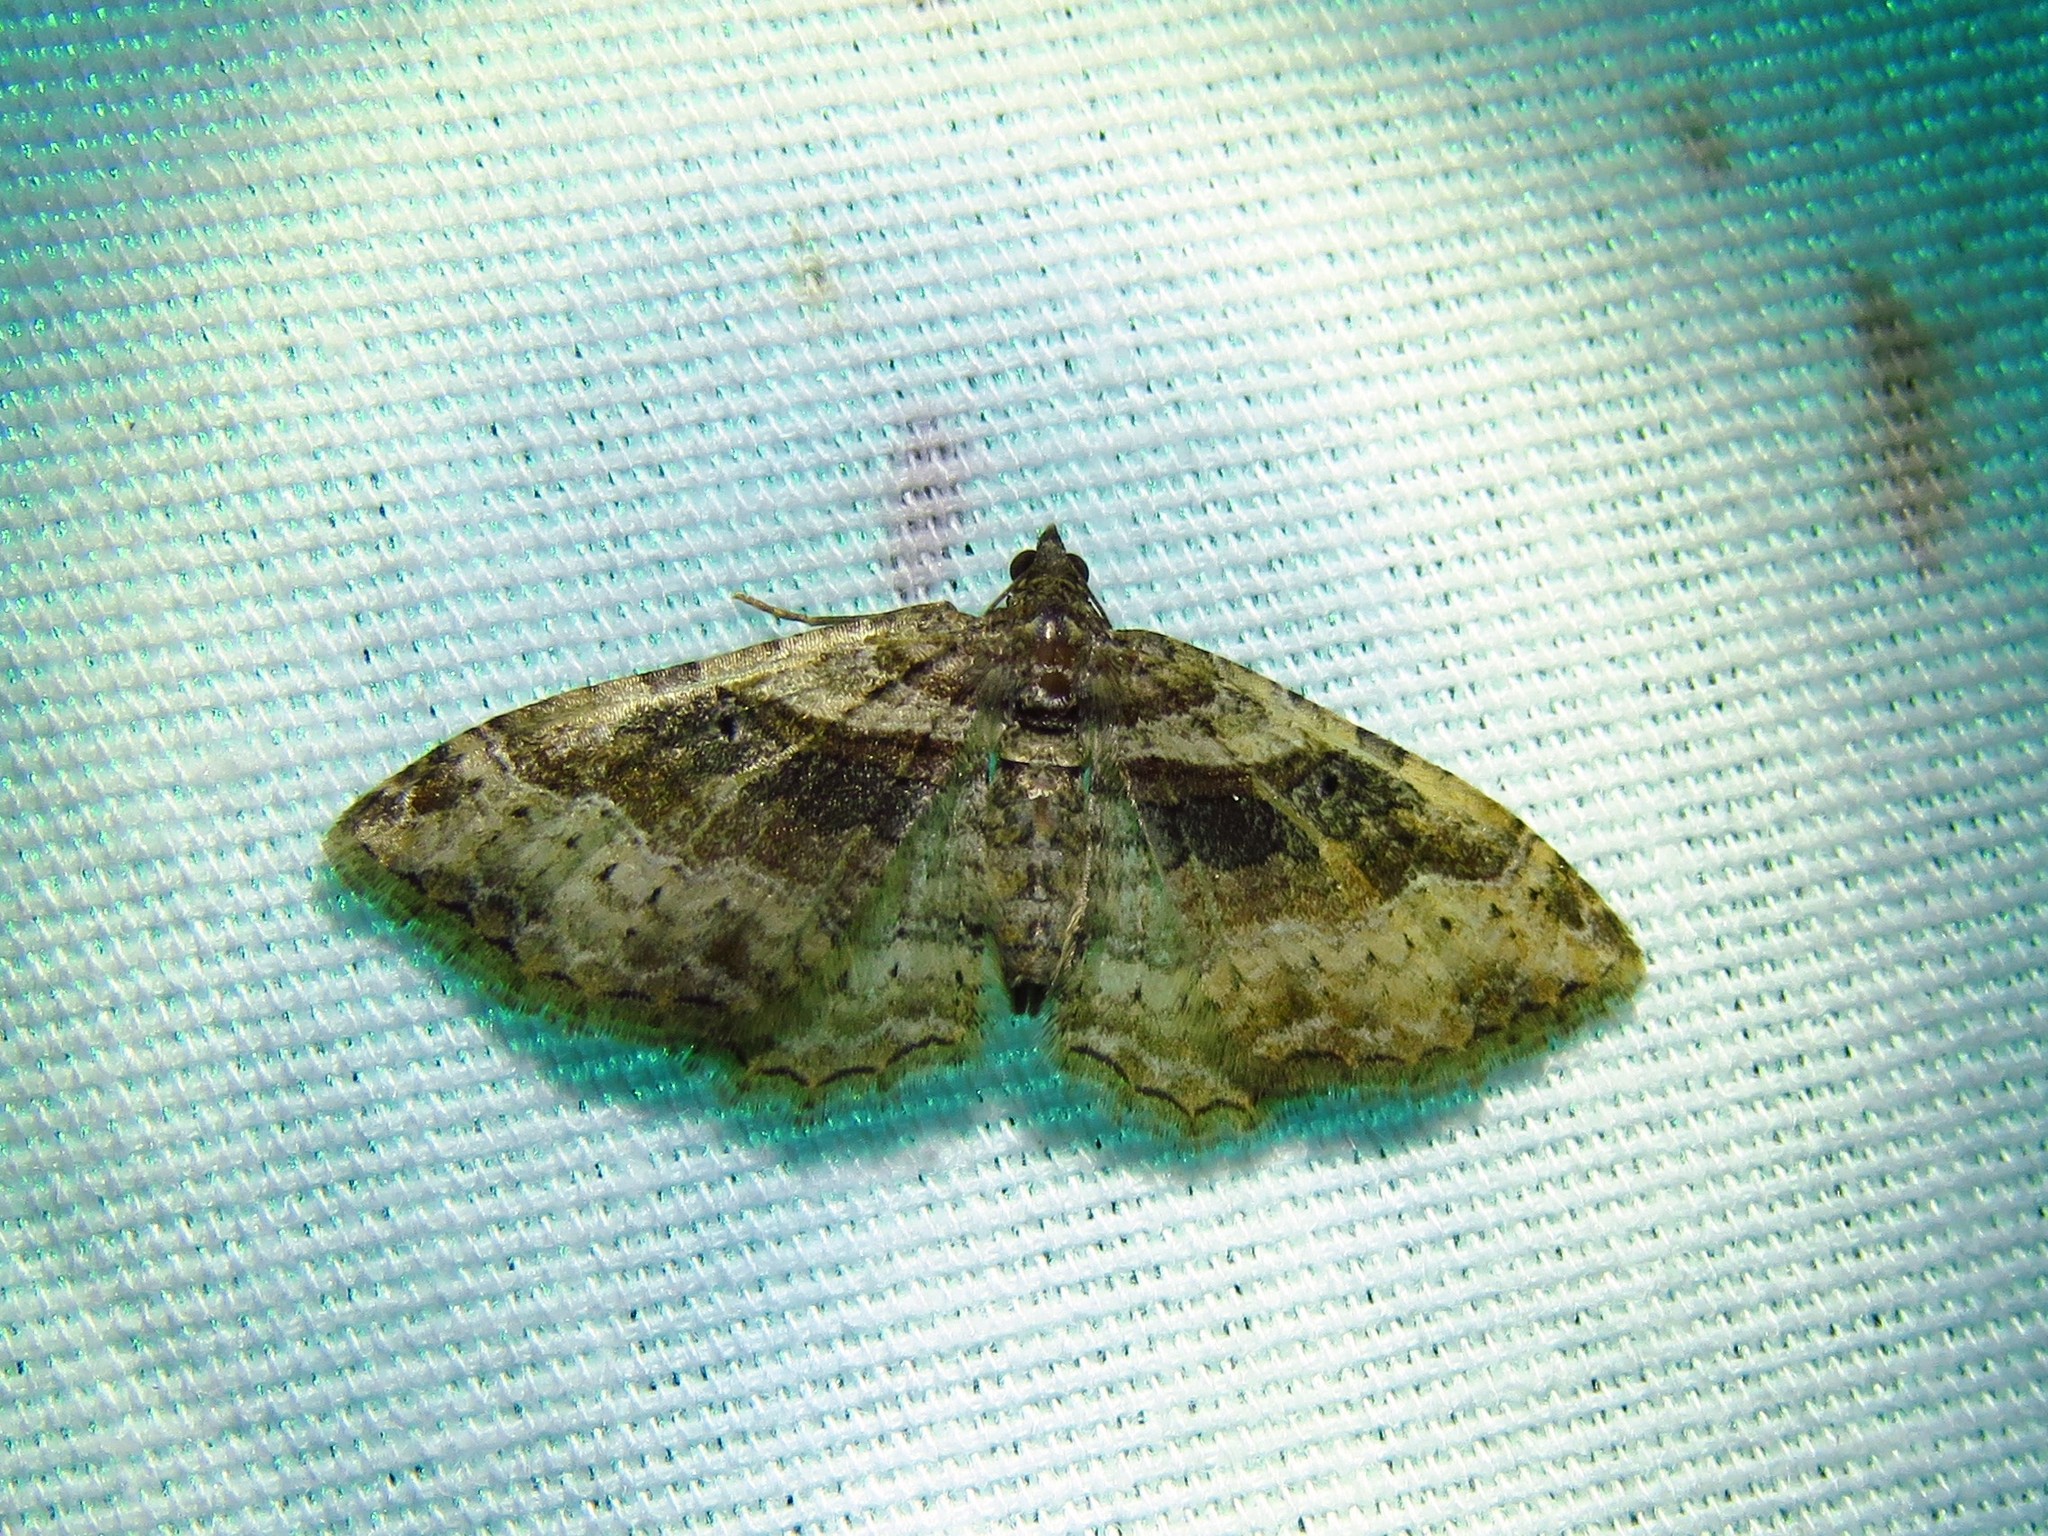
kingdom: Animalia
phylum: Arthropoda
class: Insecta
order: Lepidoptera
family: Geometridae
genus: Costaconvexa
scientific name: Costaconvexa centrostrigaria
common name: Bent-line carpet
